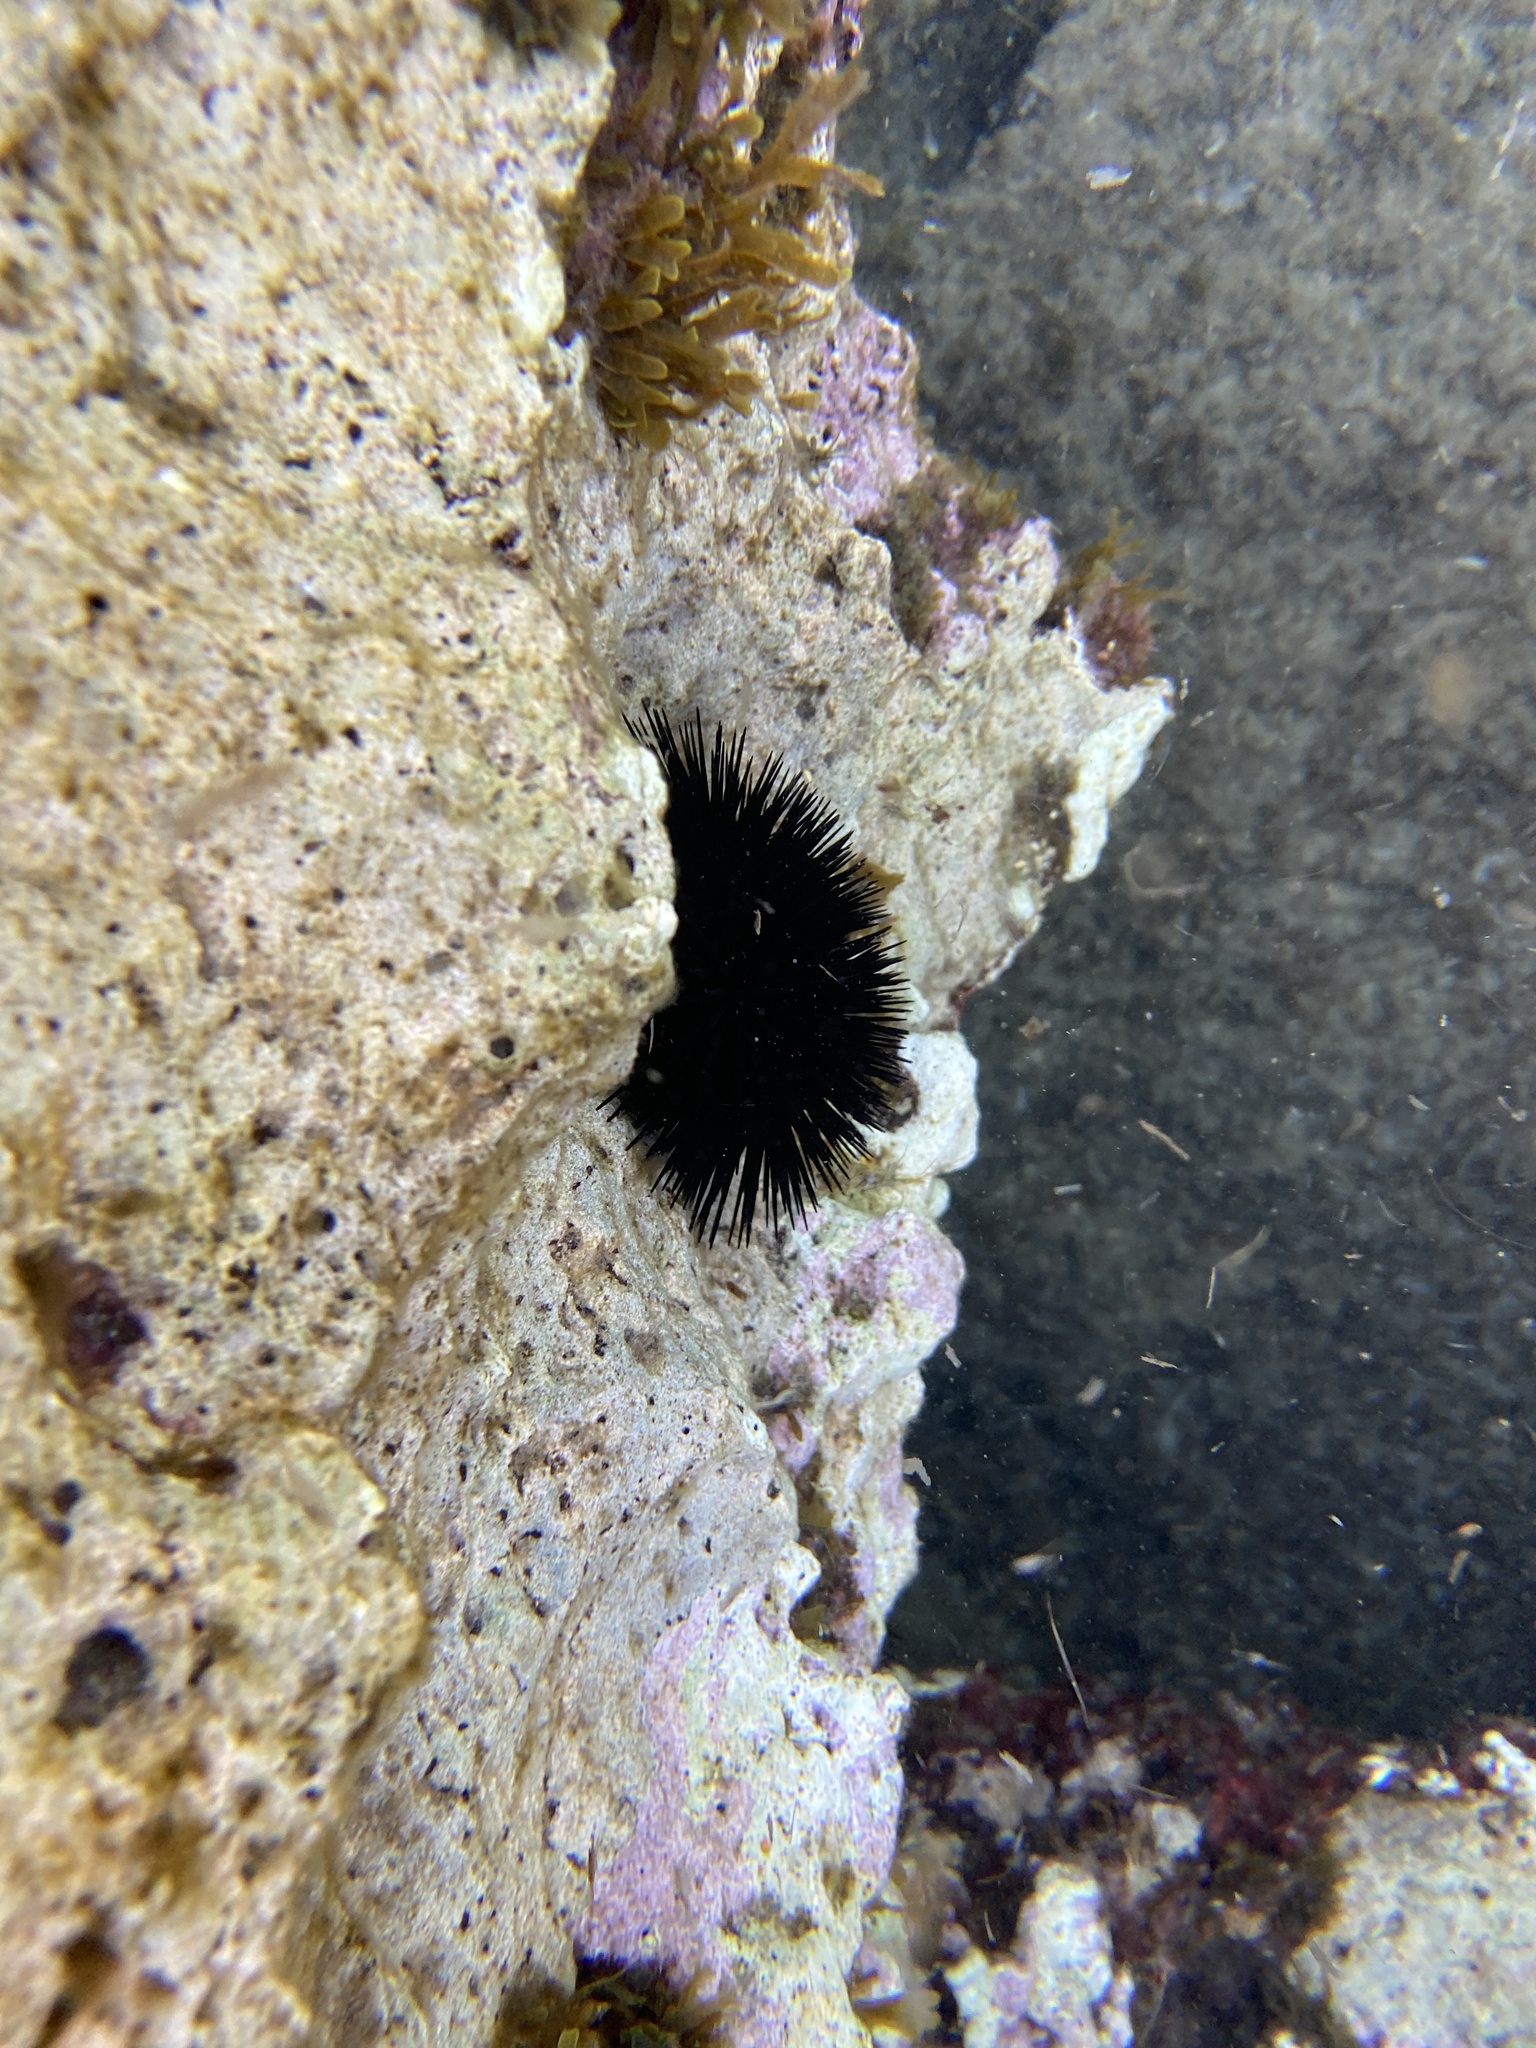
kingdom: Animalia
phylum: Echinodermata
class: Echinoidea
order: Arbacioida
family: Arbaciidae
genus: Arbacia
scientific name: Arbacia lixula
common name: Black sea urchin
